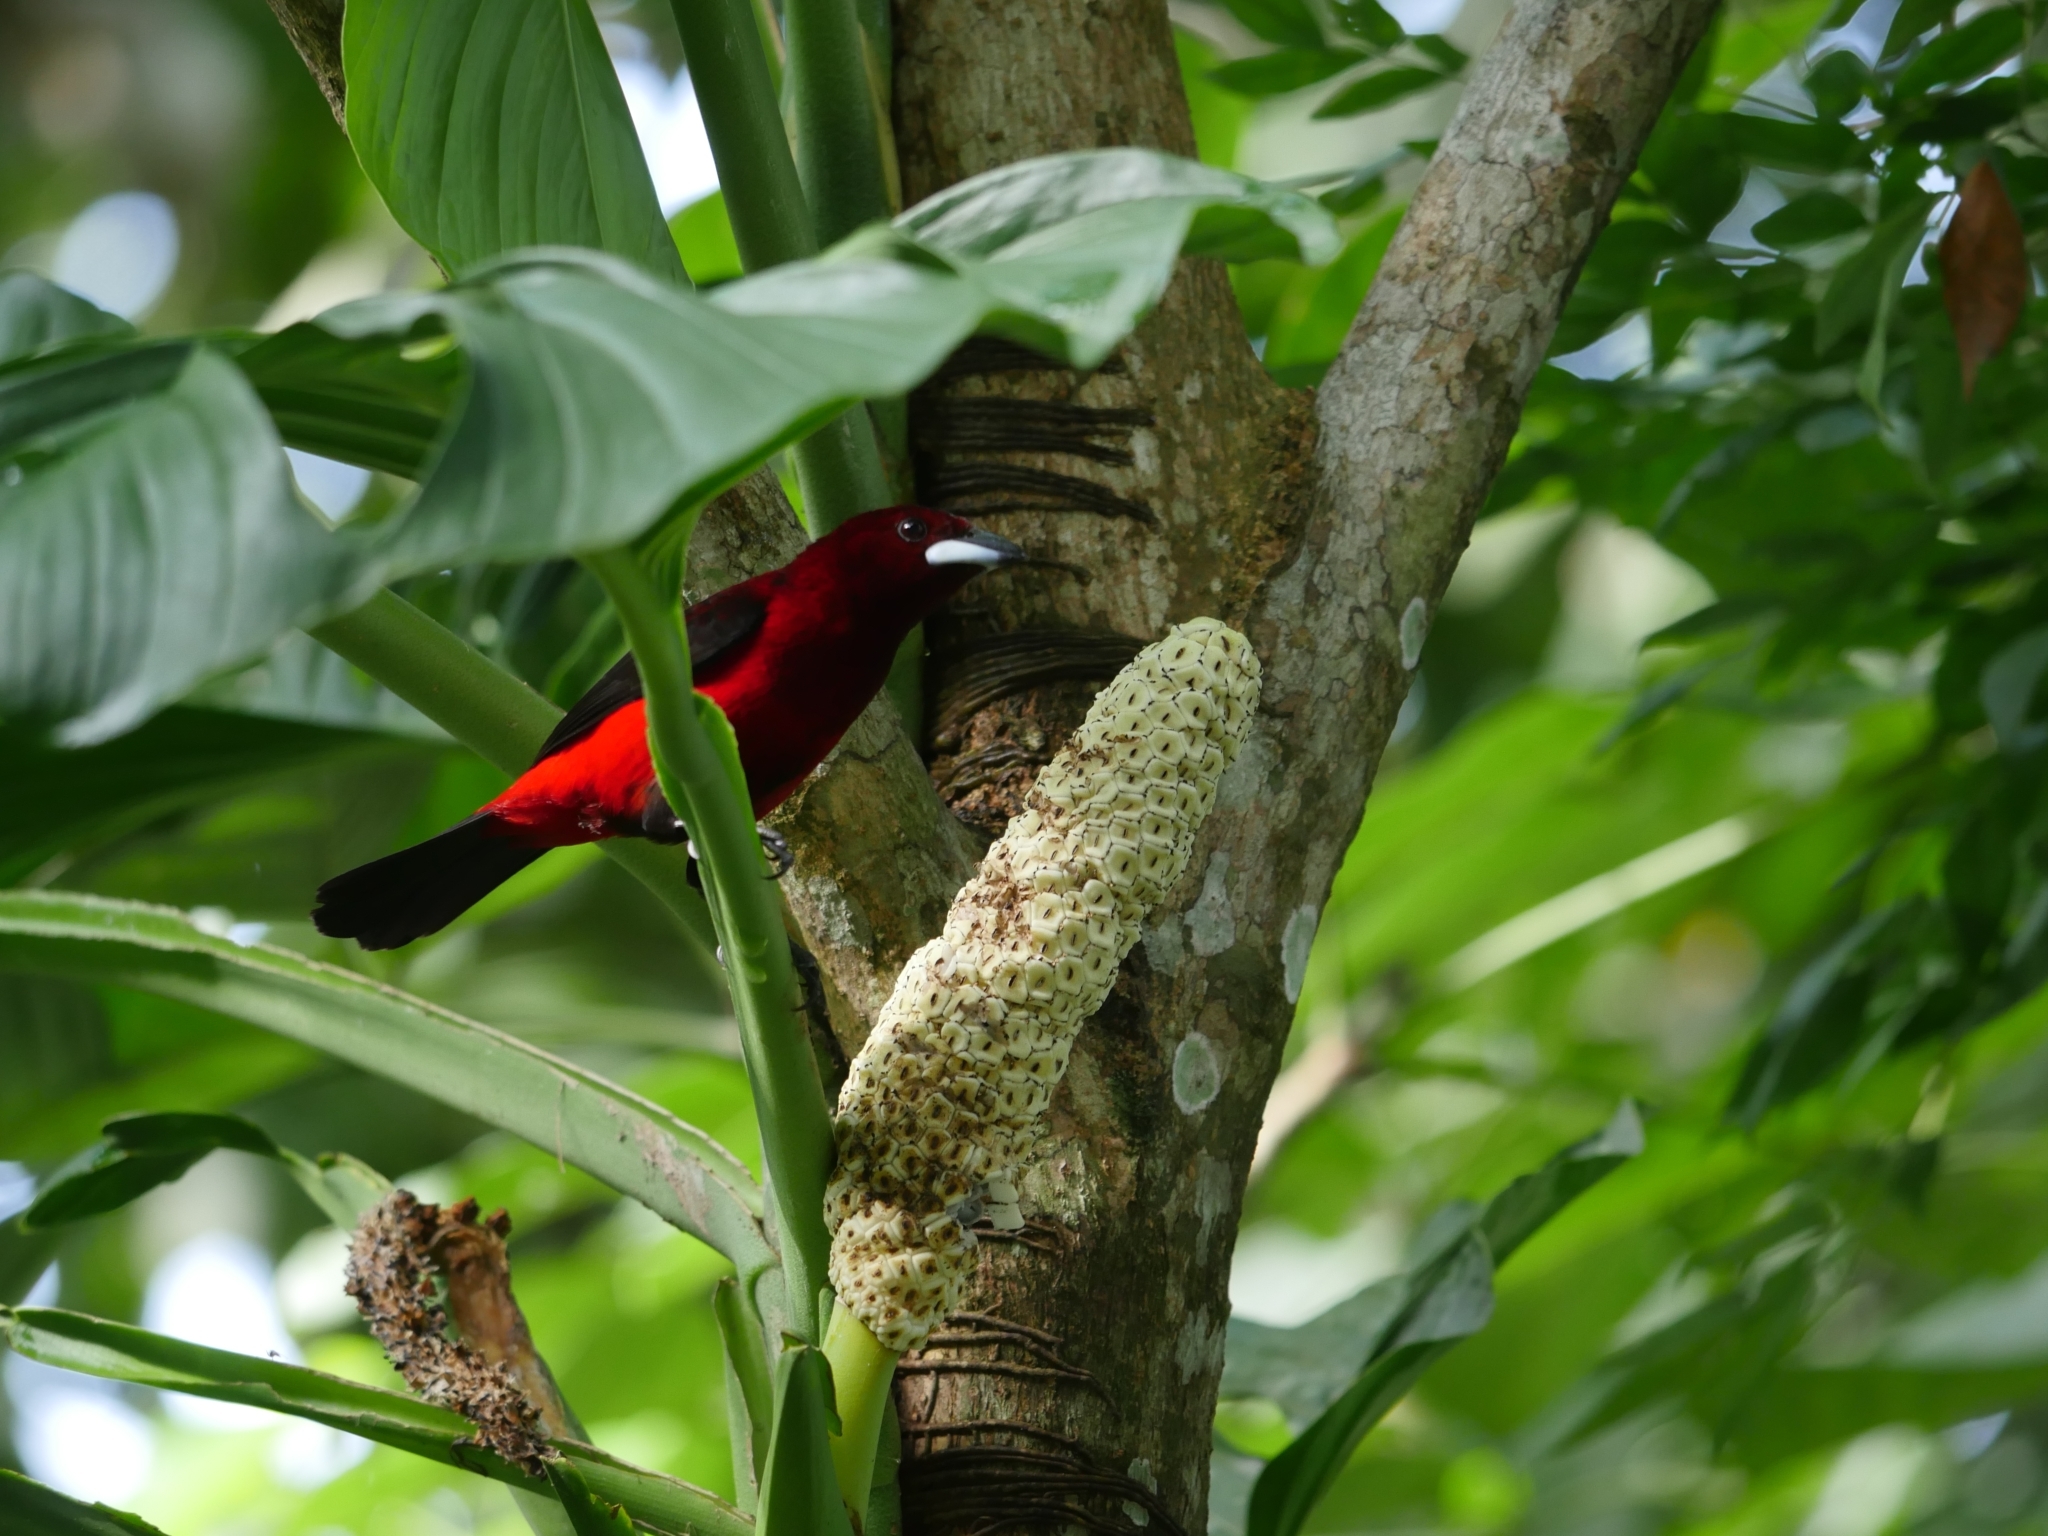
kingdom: Animalia
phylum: Chordata
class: Aves
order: Passeriformes
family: Thraupidae
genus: Ramphocelus
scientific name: Ramphocelus dimidiatus
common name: Crimson-backed tanager
